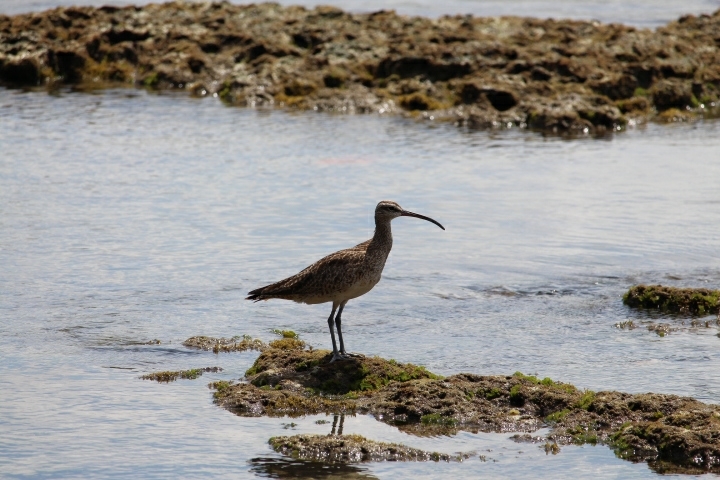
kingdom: Animalia
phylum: Chordata
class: Aves
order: Charadriiformes
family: Scolopacidae
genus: Numenius
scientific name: Numenius phaeopus
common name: Whimbrel
